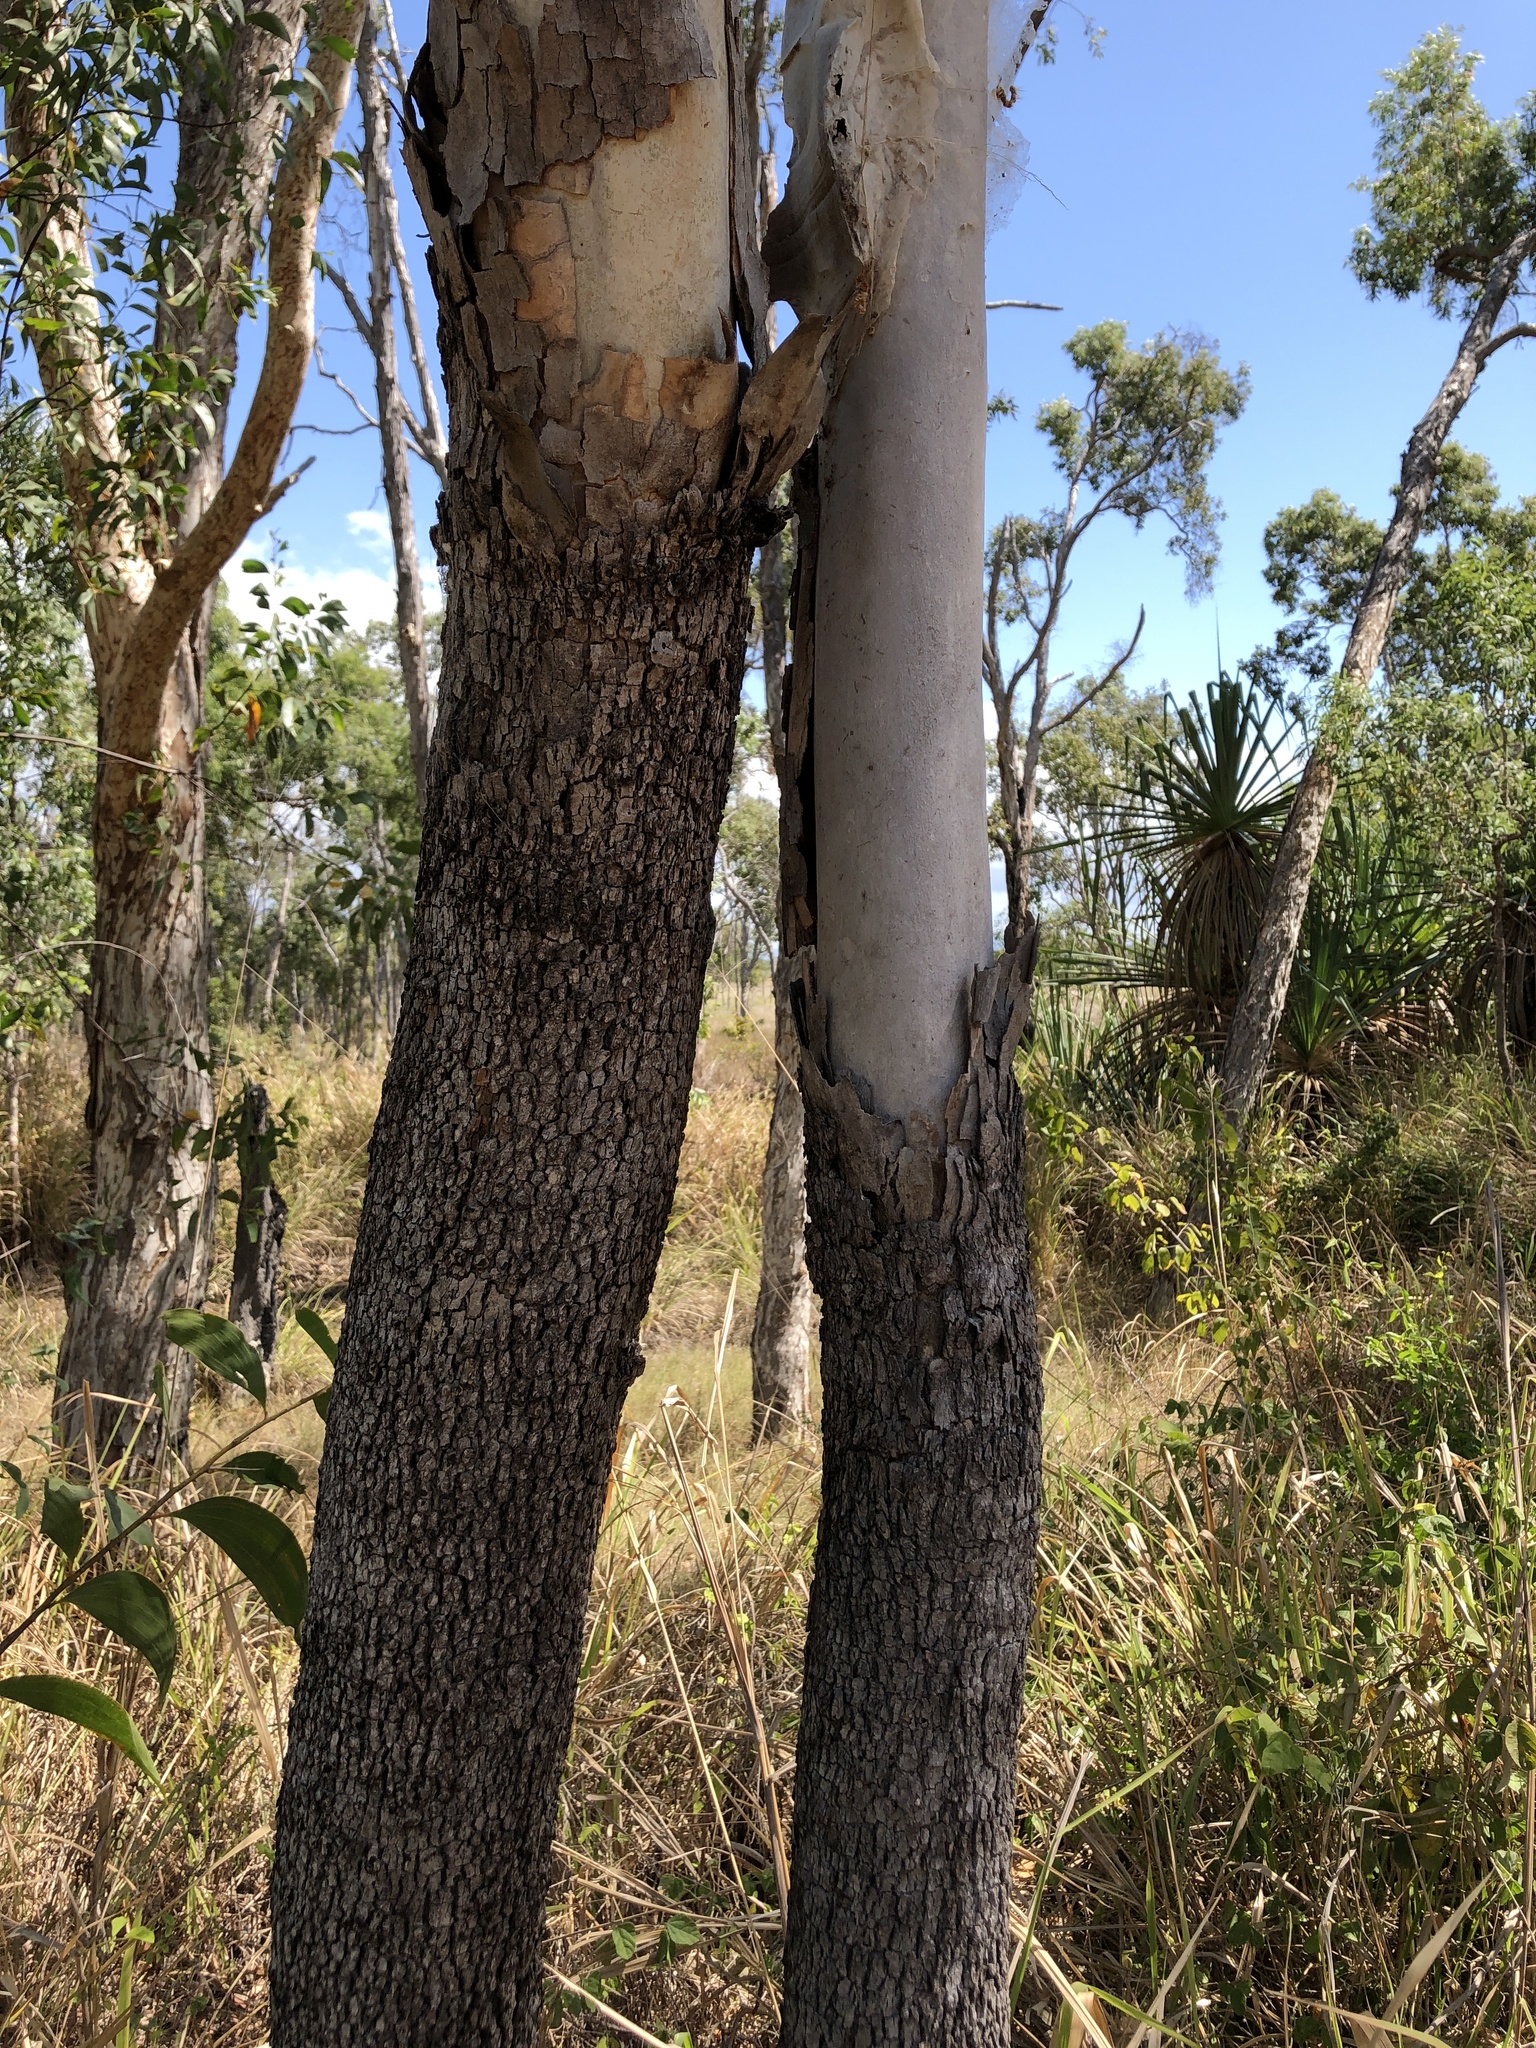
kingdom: Plantae
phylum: Tracheophyta
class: Magnoliopsida
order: Myrtales
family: Myrtaceae
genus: Corymbia
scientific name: Corymbia tessellaris
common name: Carbeen
